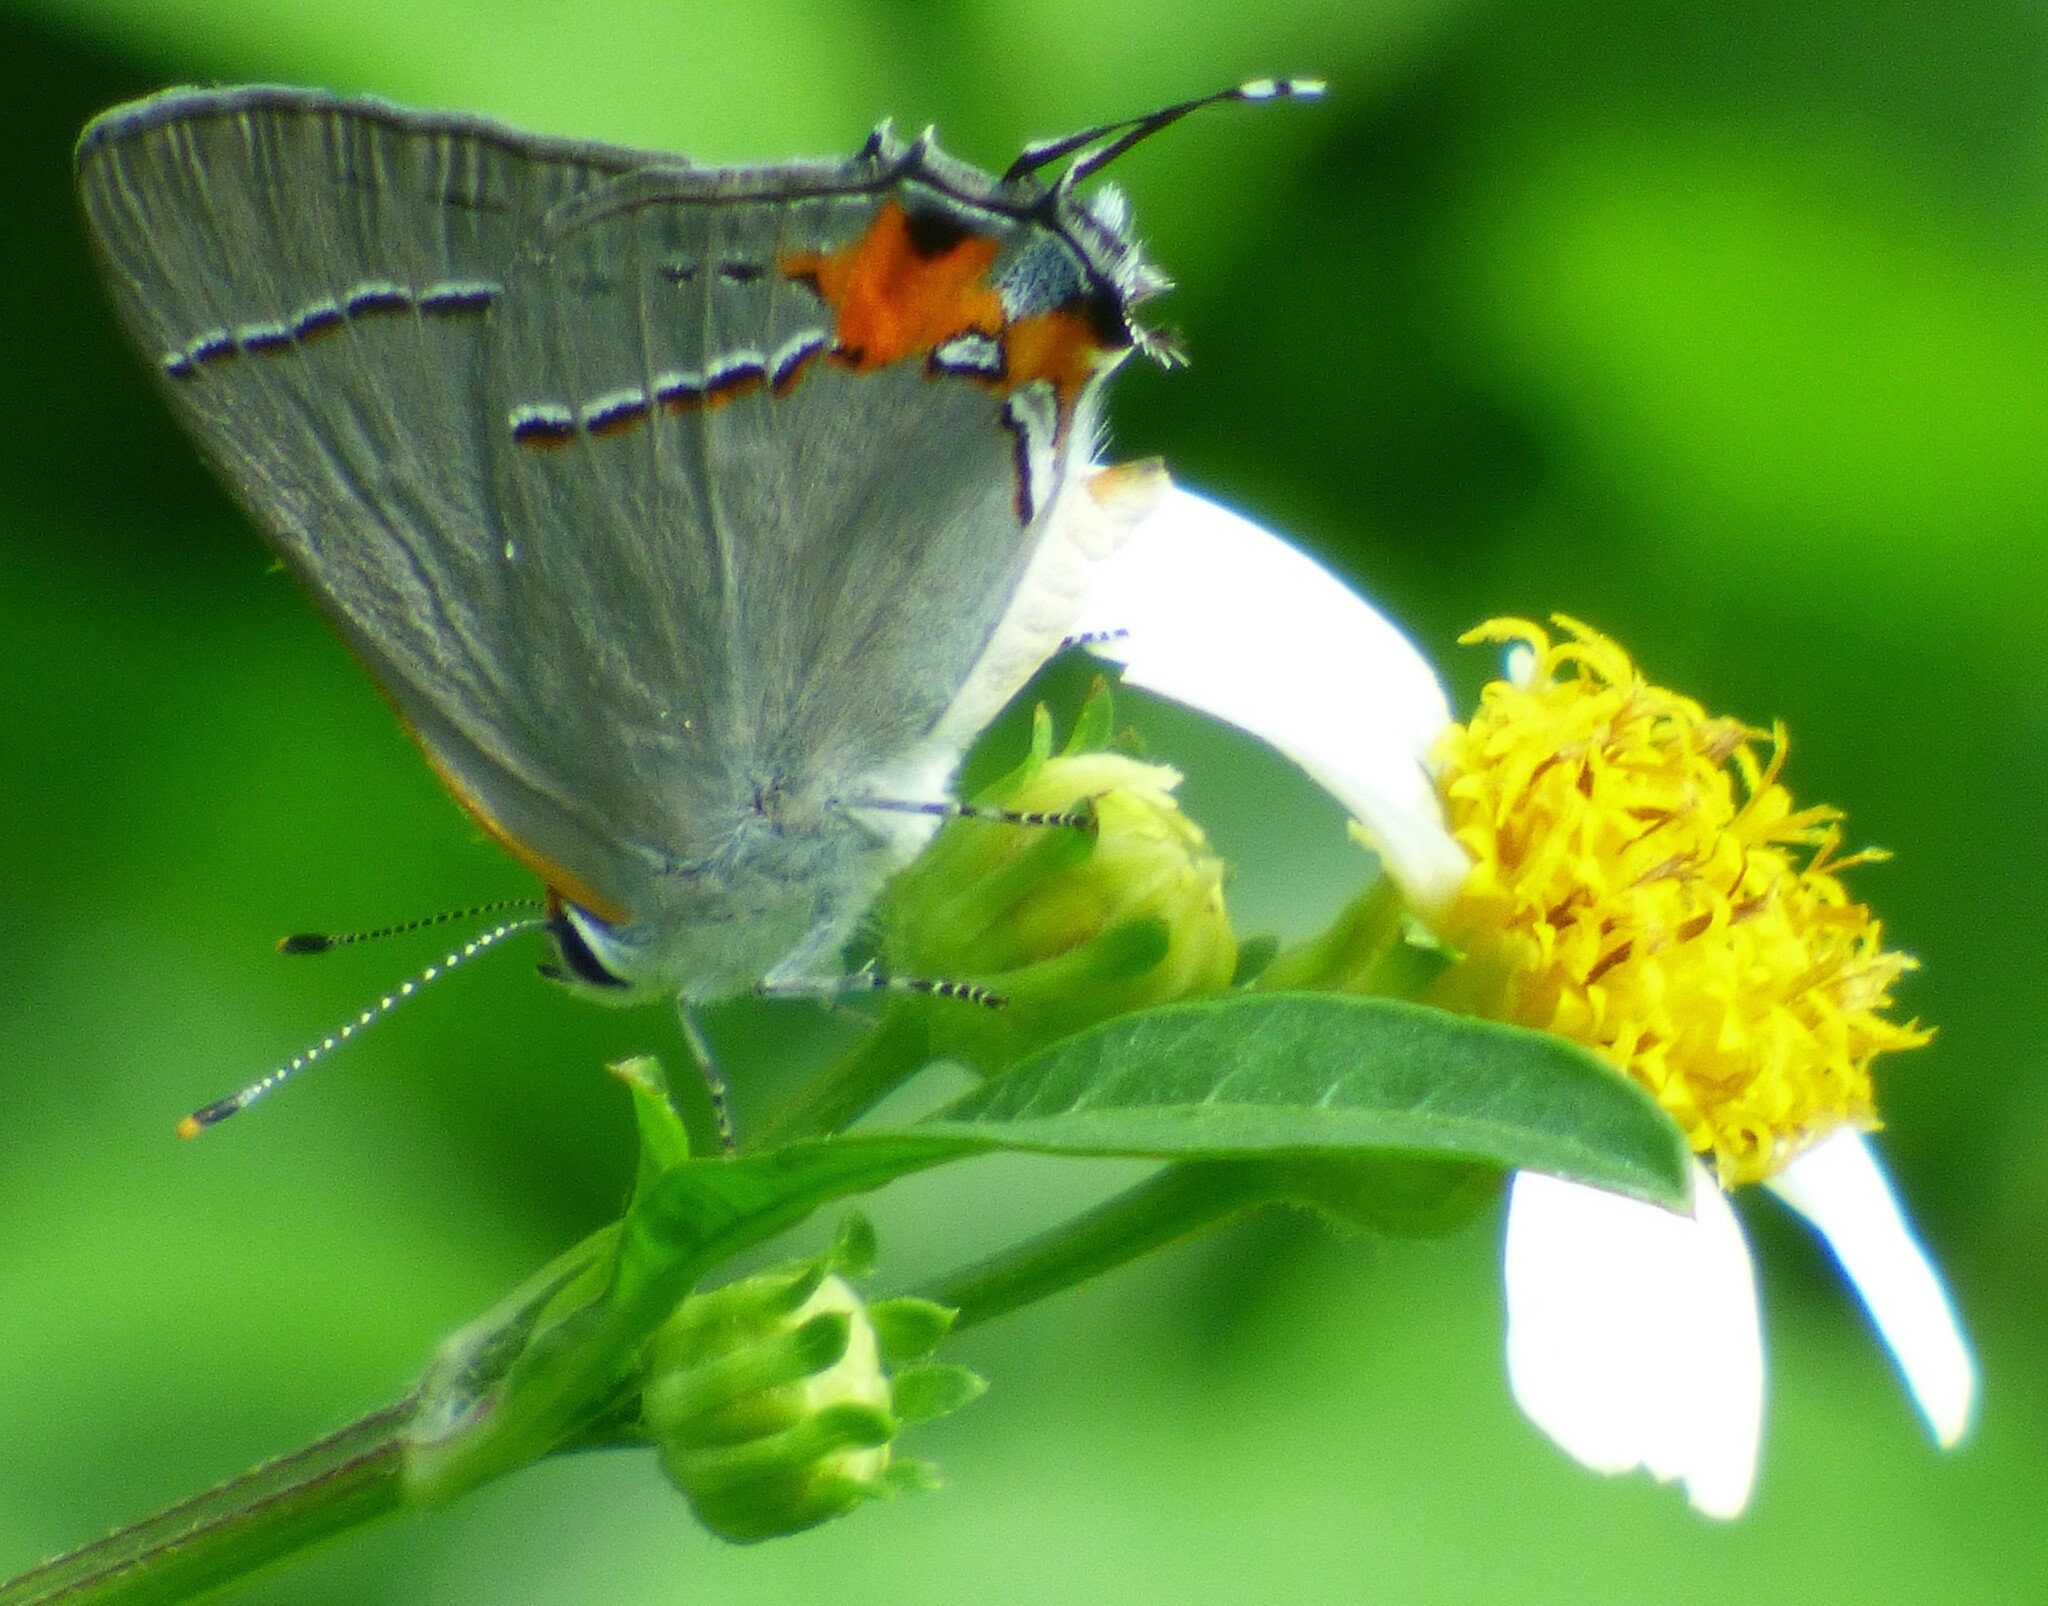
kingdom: Animalia
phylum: Arthropoda
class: Insecta
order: Lepidoptera
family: Lycaenidae
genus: Strymon
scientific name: Strymon melinus
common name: Gray hairstreak
